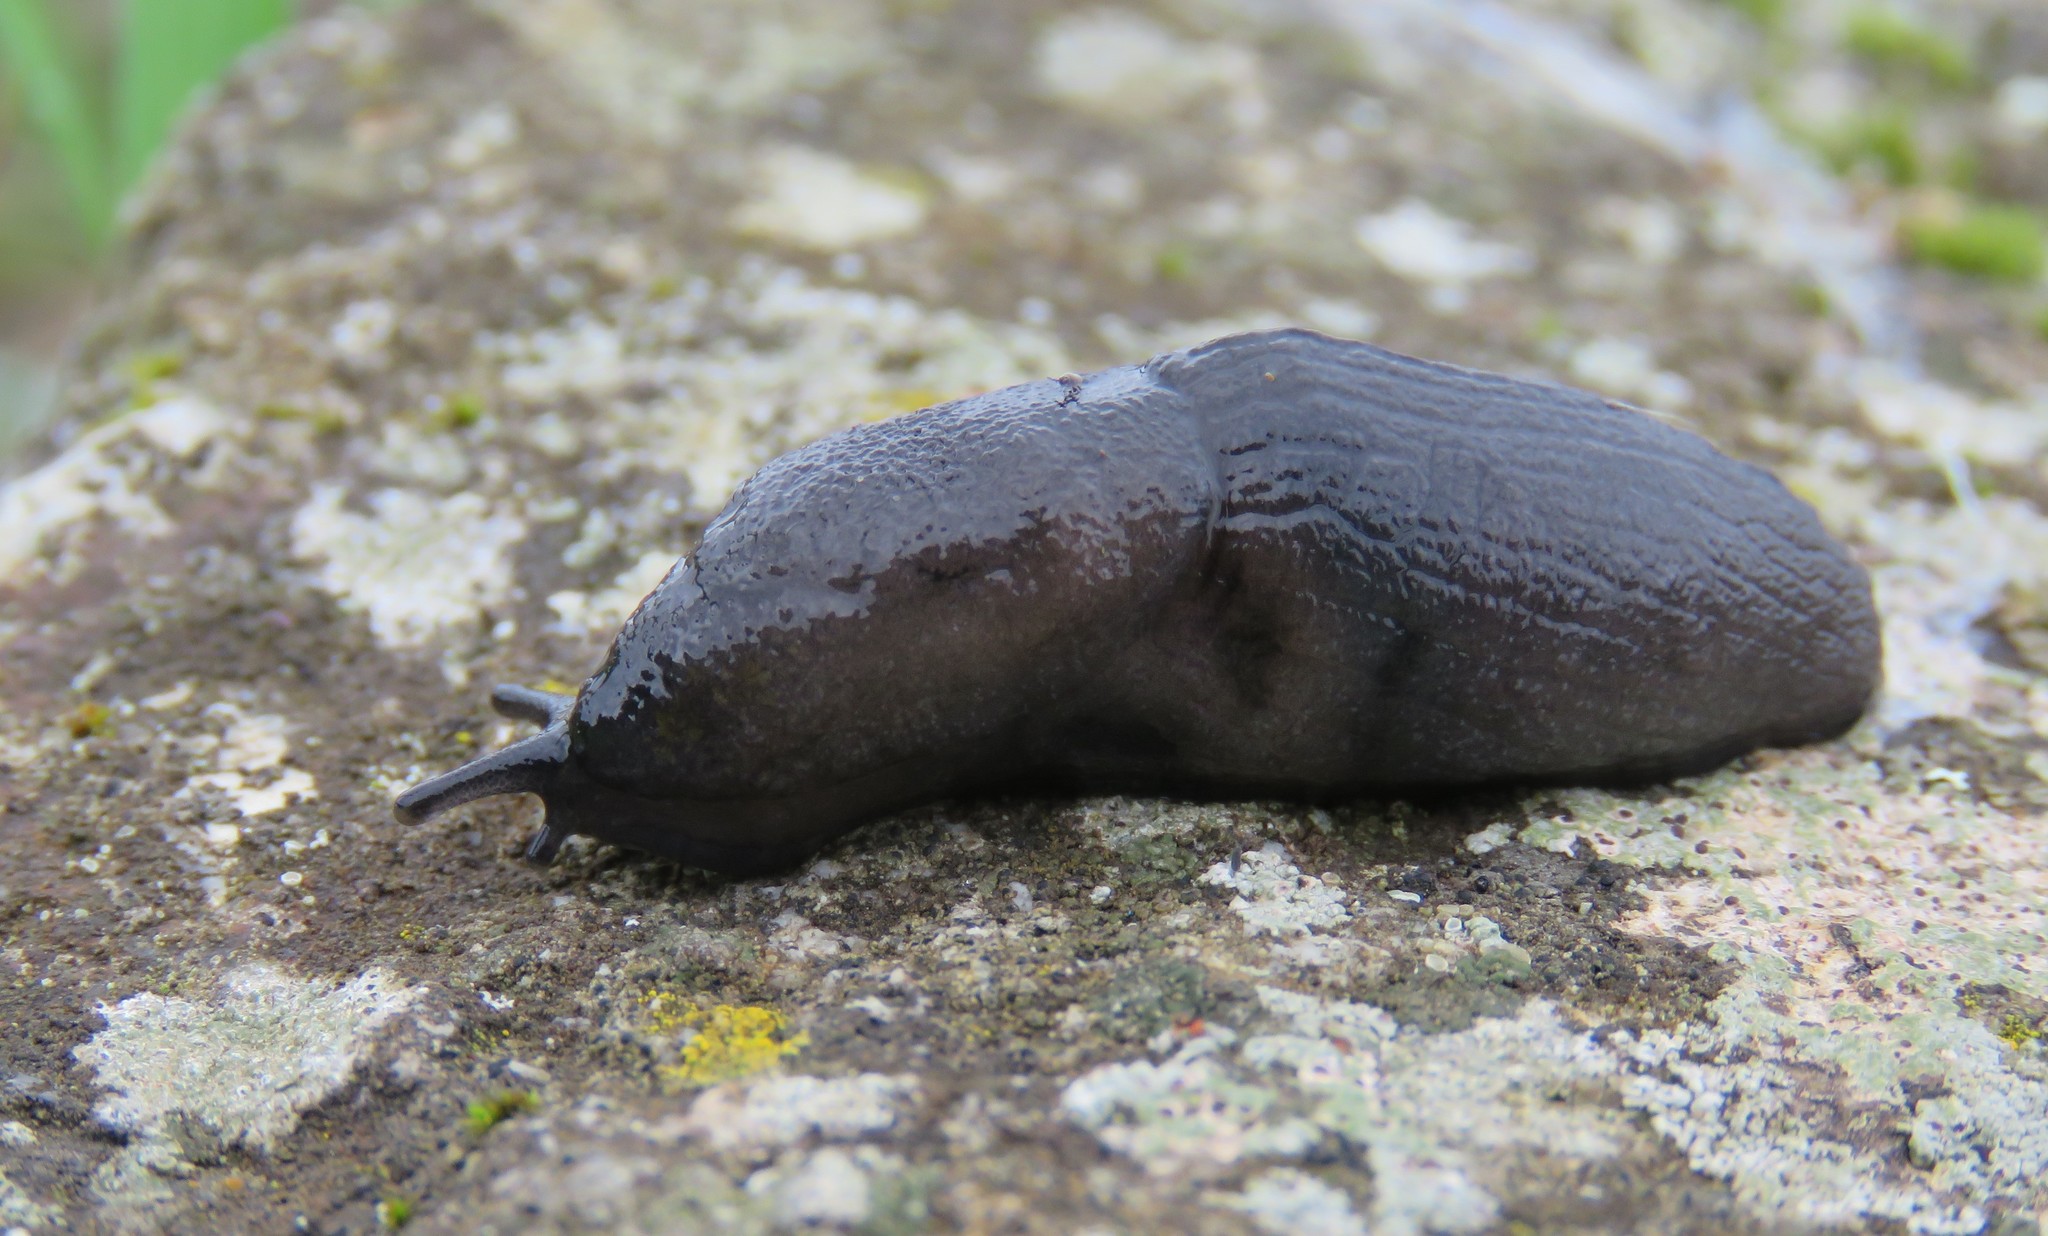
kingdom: Animalia
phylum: Mollusca
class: Gastropoda
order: Stylommatophora
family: Milacidae
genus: Milax
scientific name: Milax gagates
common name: Greenhouse slug
